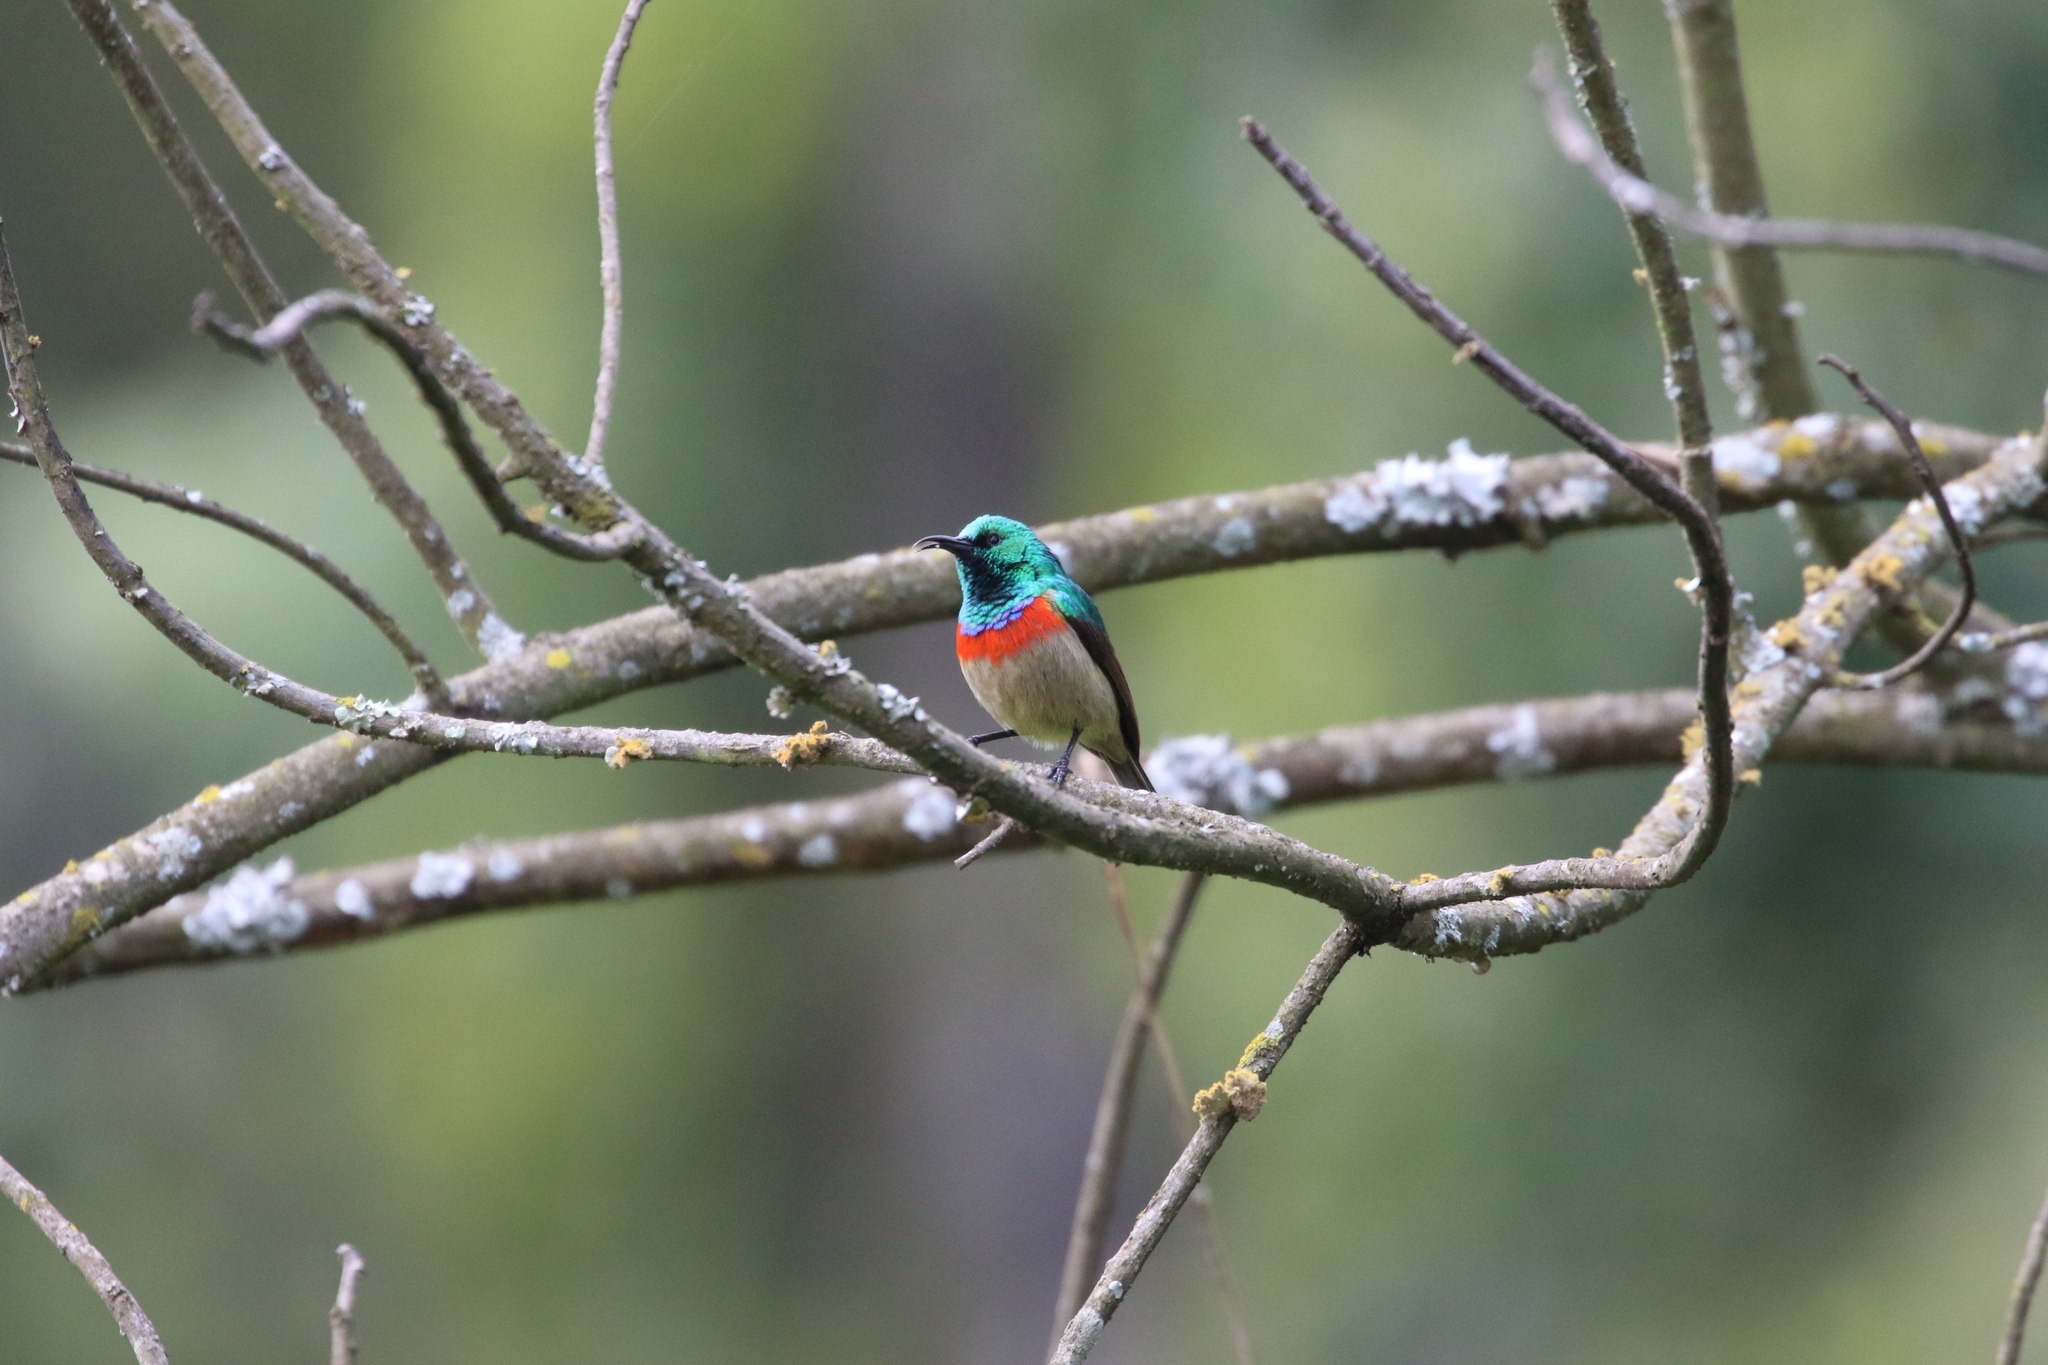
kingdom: Animalia
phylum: Chordata
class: Aves
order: Passeriformes
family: Nectariniidae
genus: Cinnyris
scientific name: Cinnyris mediocris
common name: Eastern double-collared sunbird
